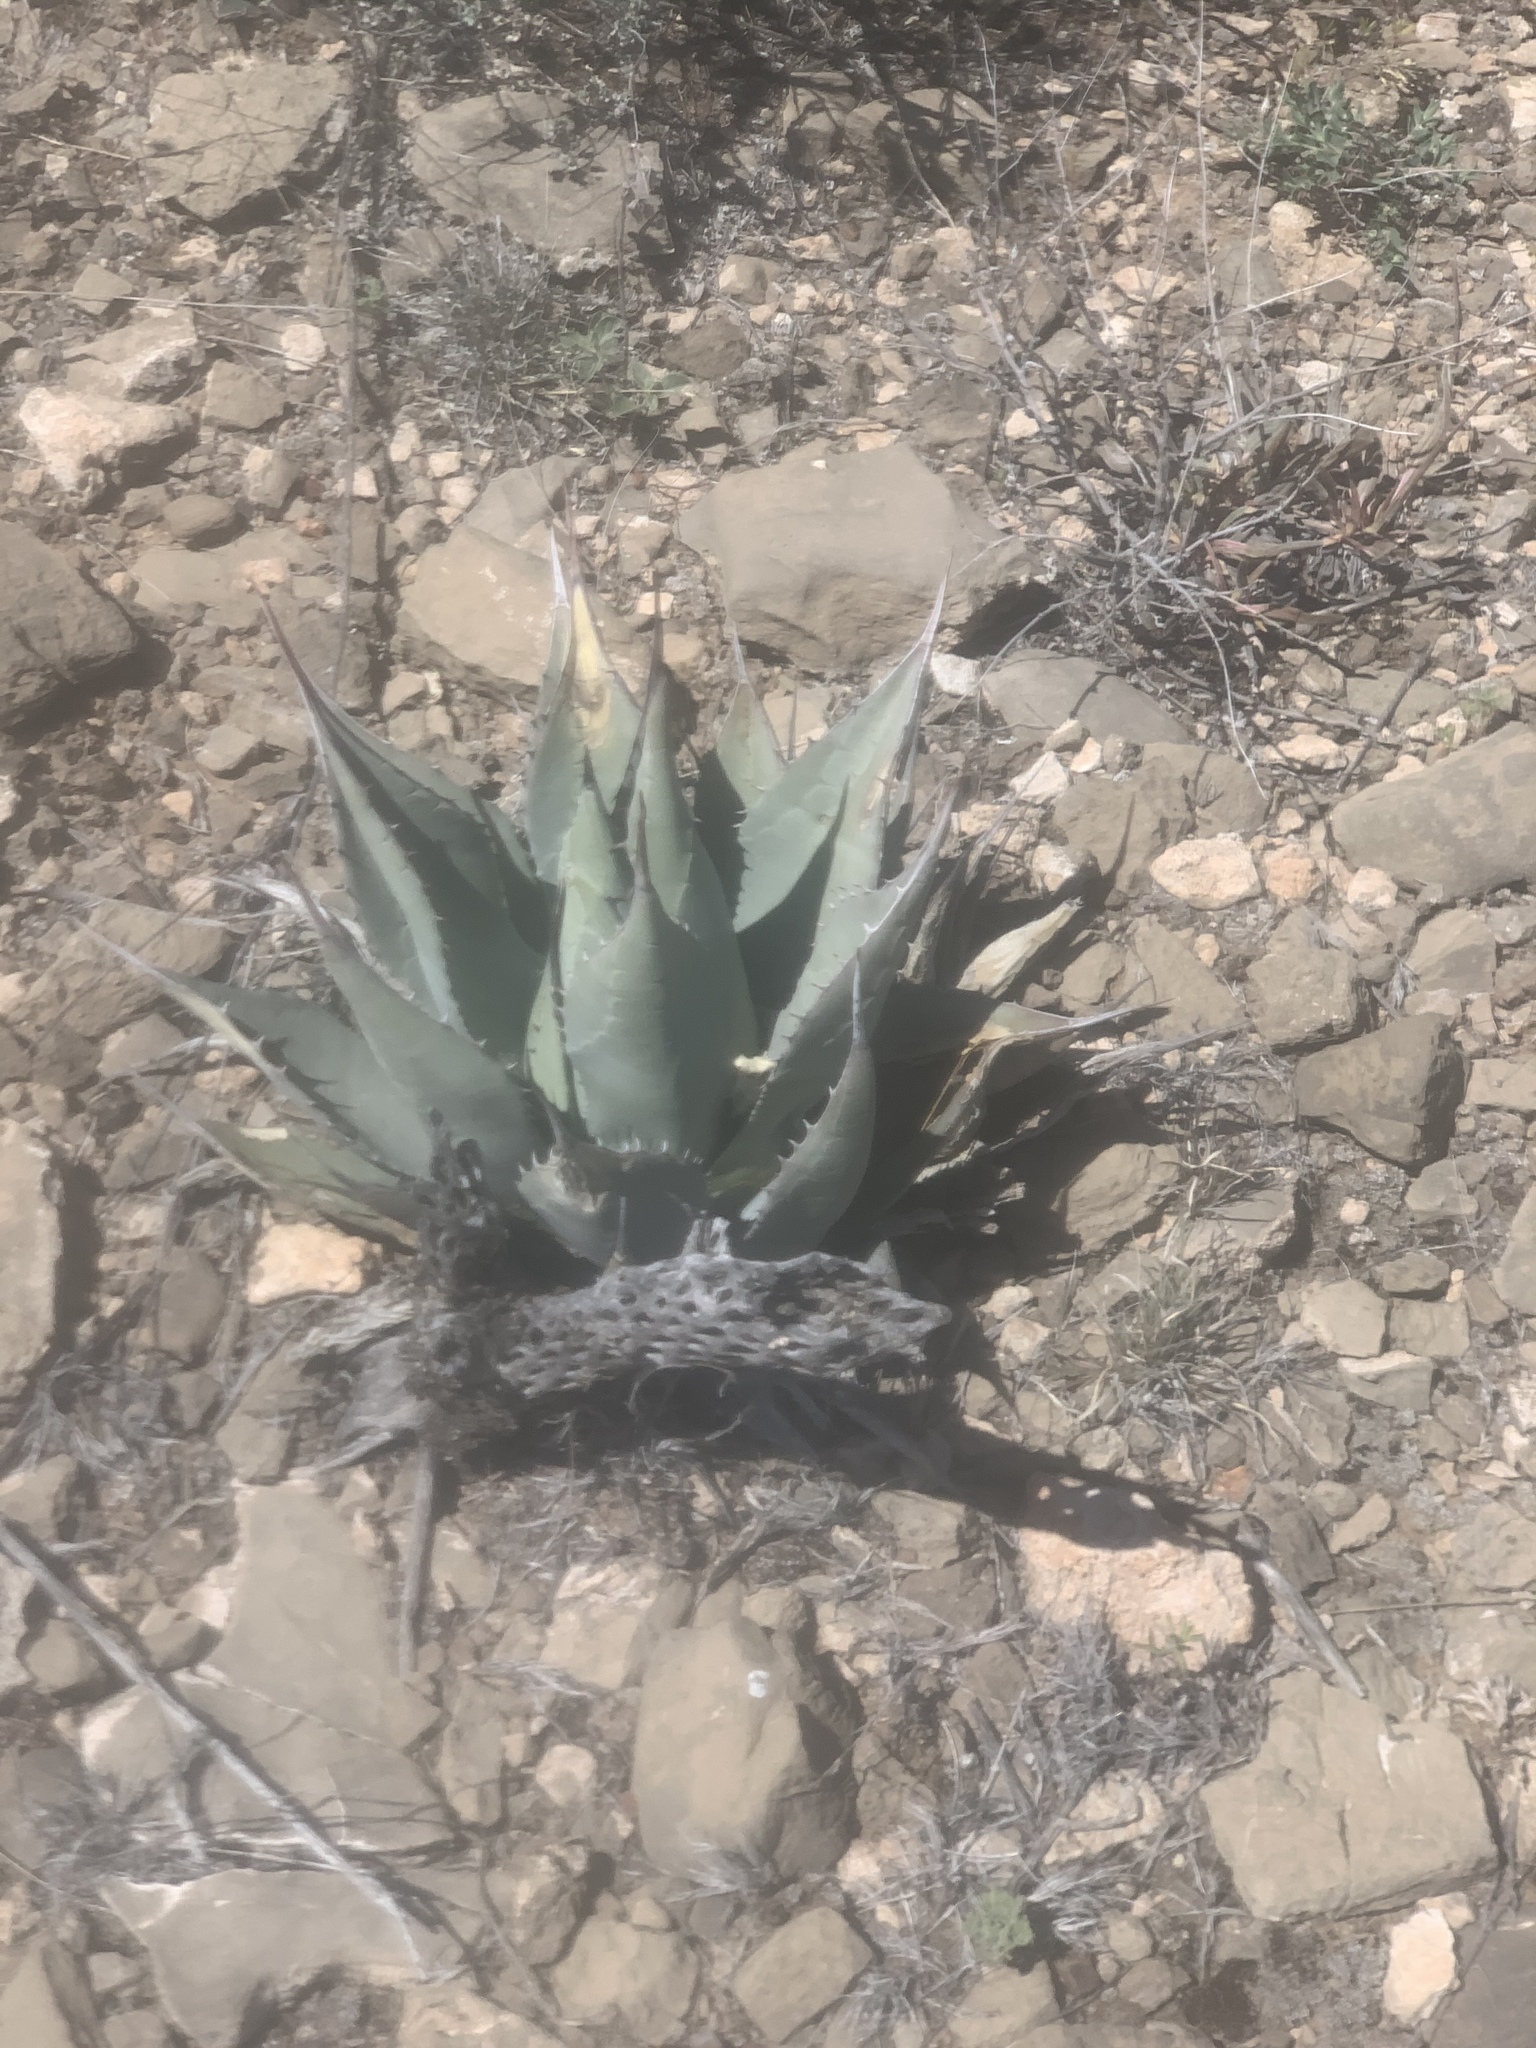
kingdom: Plantae
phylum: Tracheophyta
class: Liliopsida
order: Asparagales
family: Asparagaceae
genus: Agave
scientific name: Agave parryi
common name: Parry's agave
